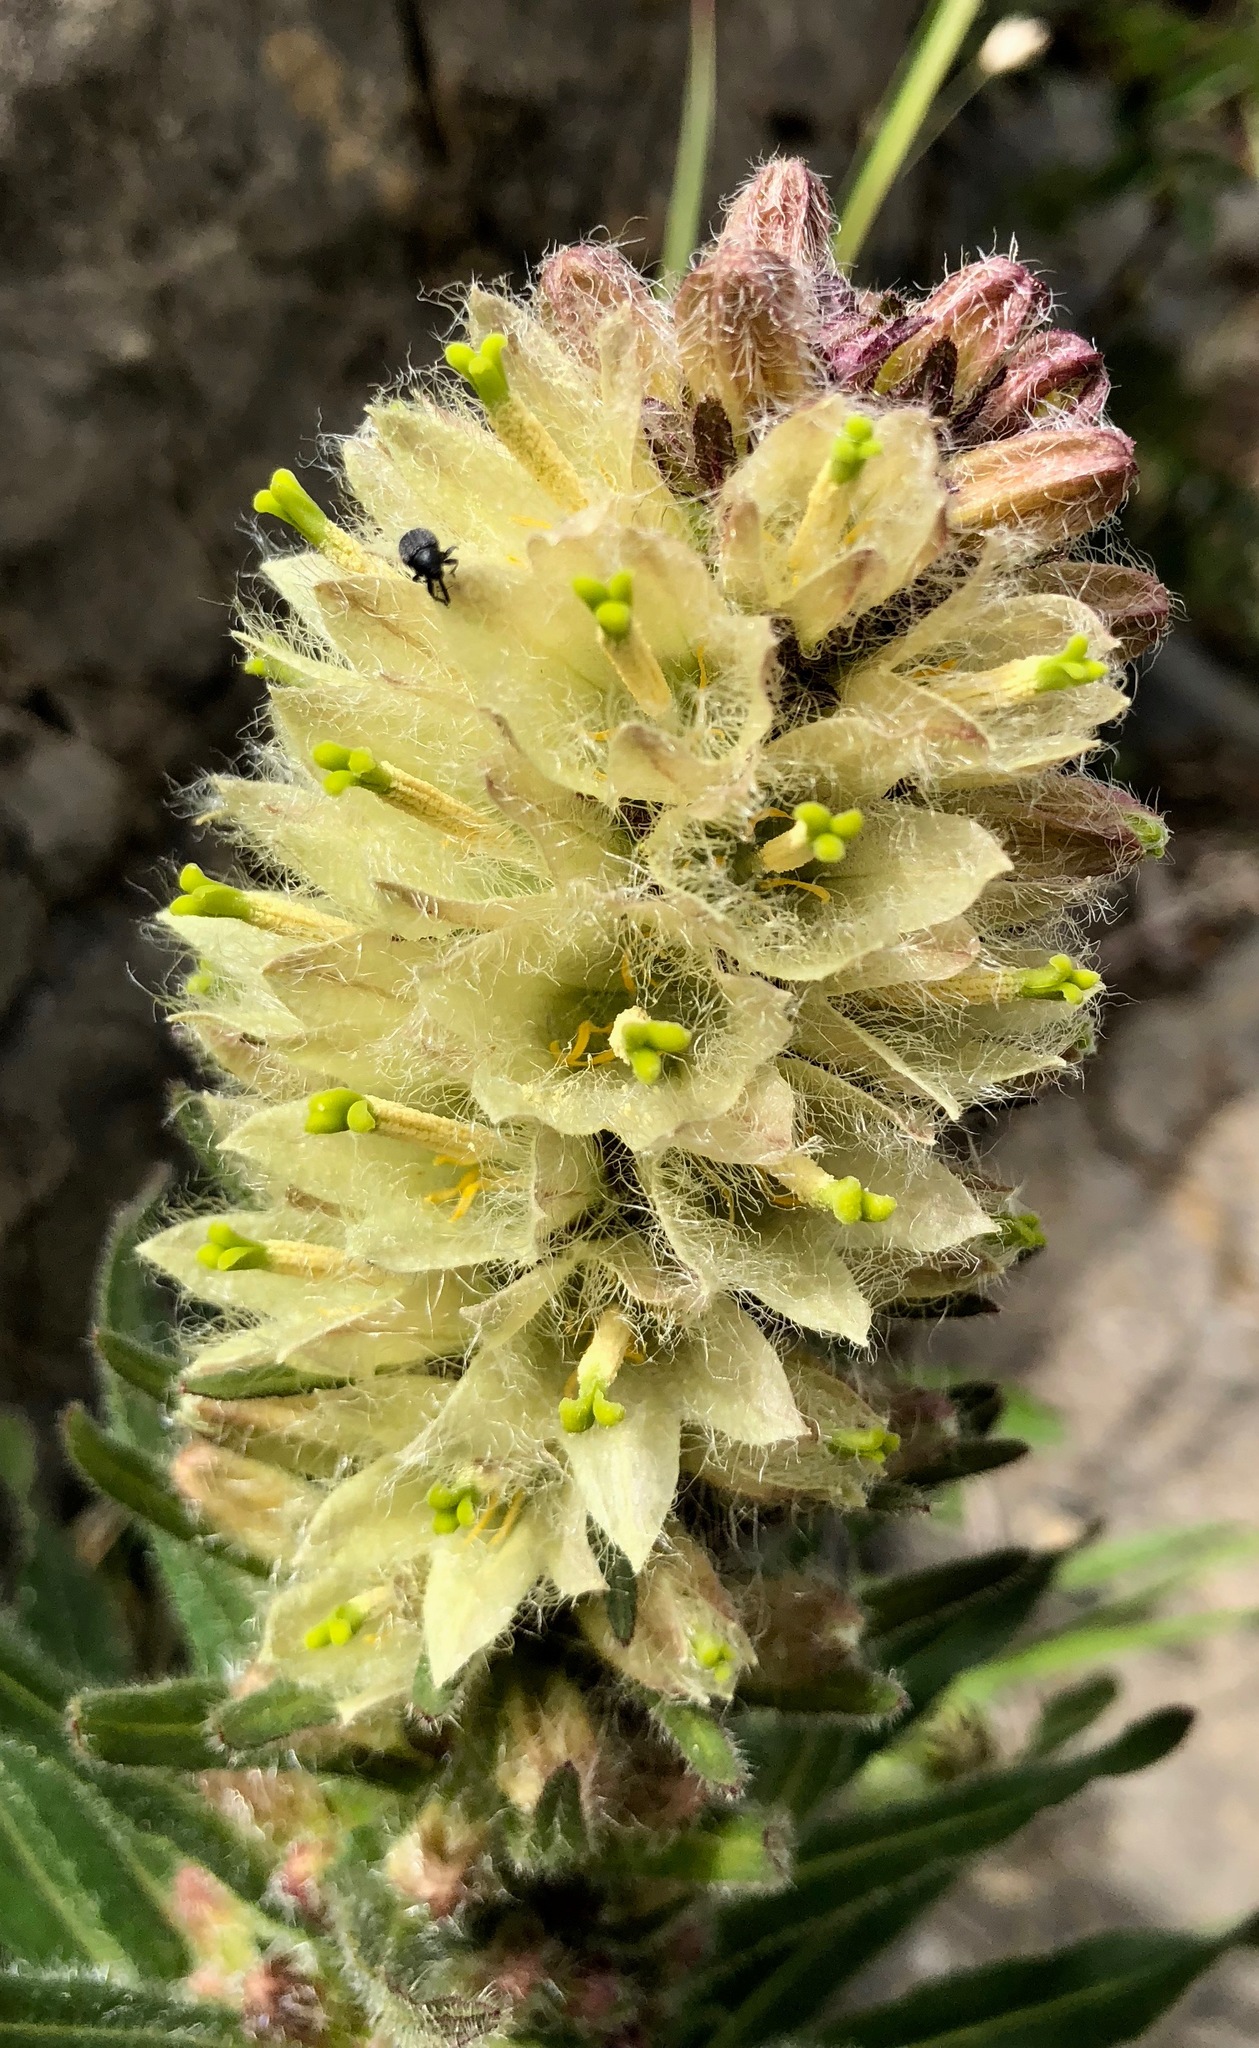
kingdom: Plantae
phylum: Tracheophyta
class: Magnoliopsida
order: Asterales
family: Campanulaceae
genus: Campanula
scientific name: Campanula thyrsoides
